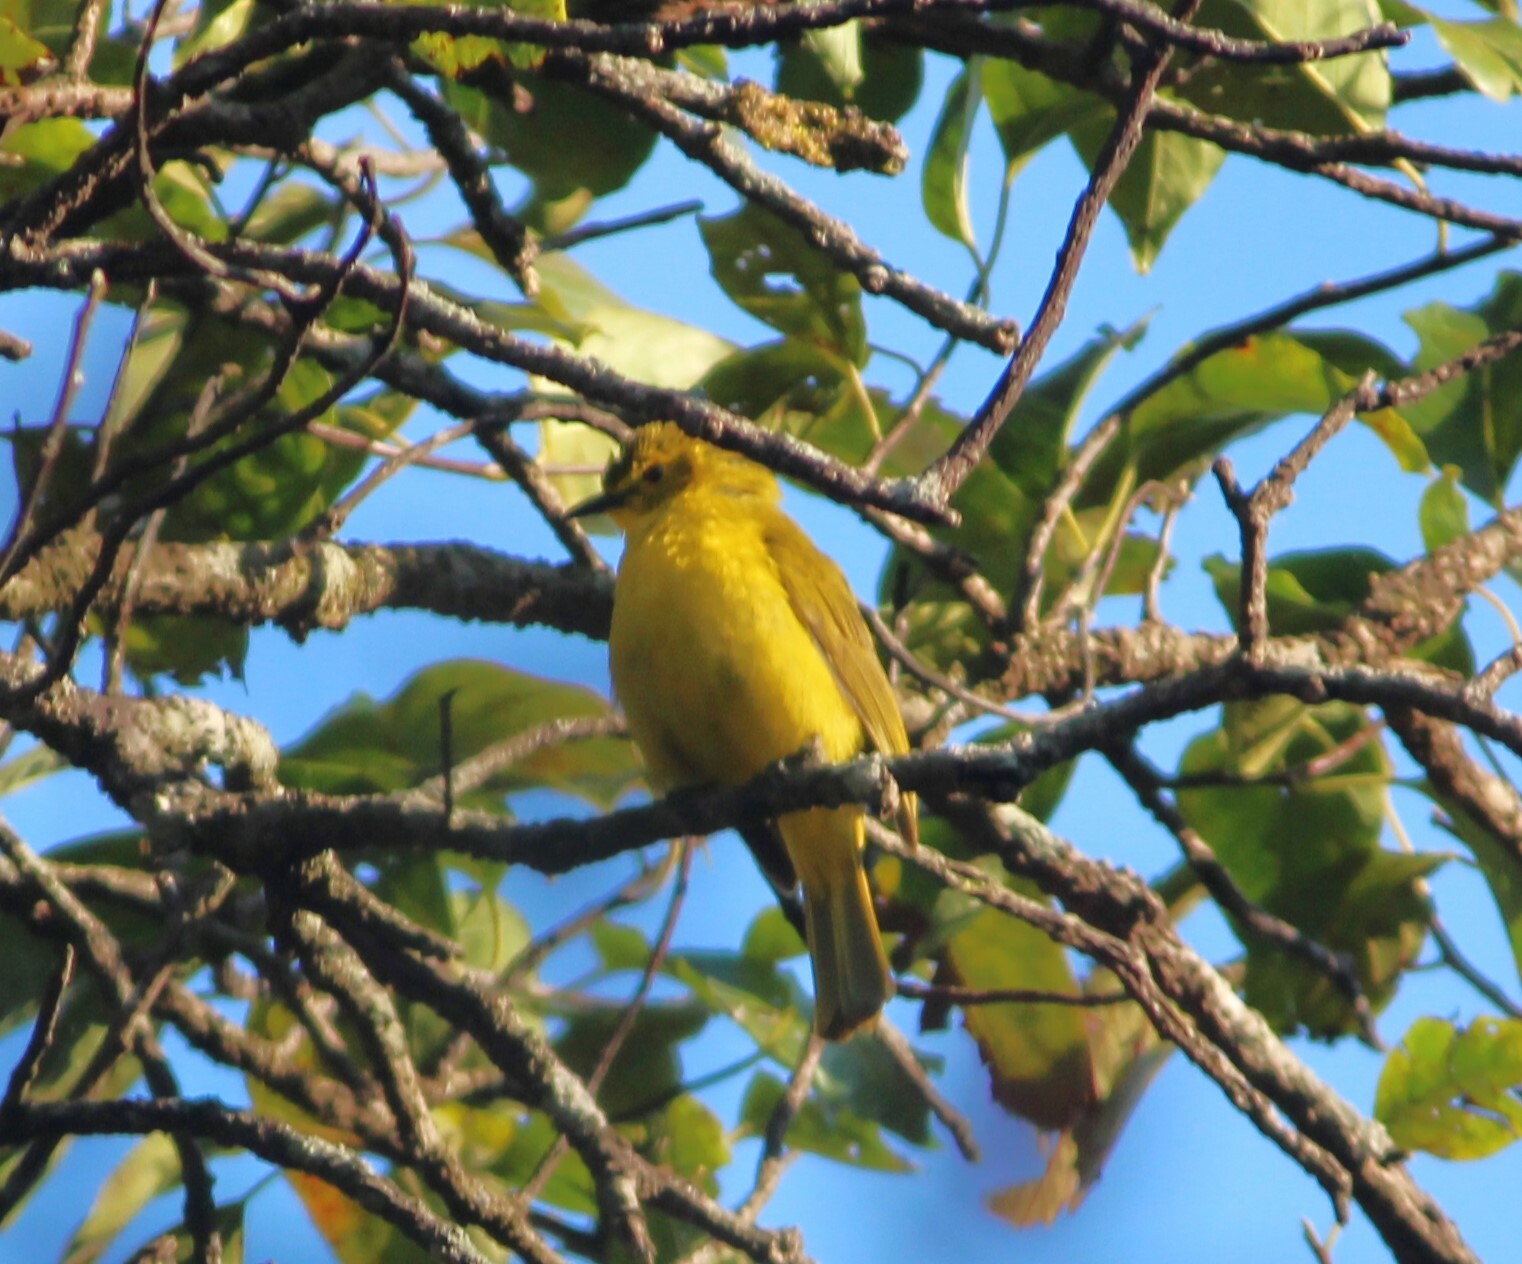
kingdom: Animalia
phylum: Chordata
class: Aves
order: Passeriformes
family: Pycnonotidae
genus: Acritillas
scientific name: Acritillas indica
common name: Yellow-browed bulbul
